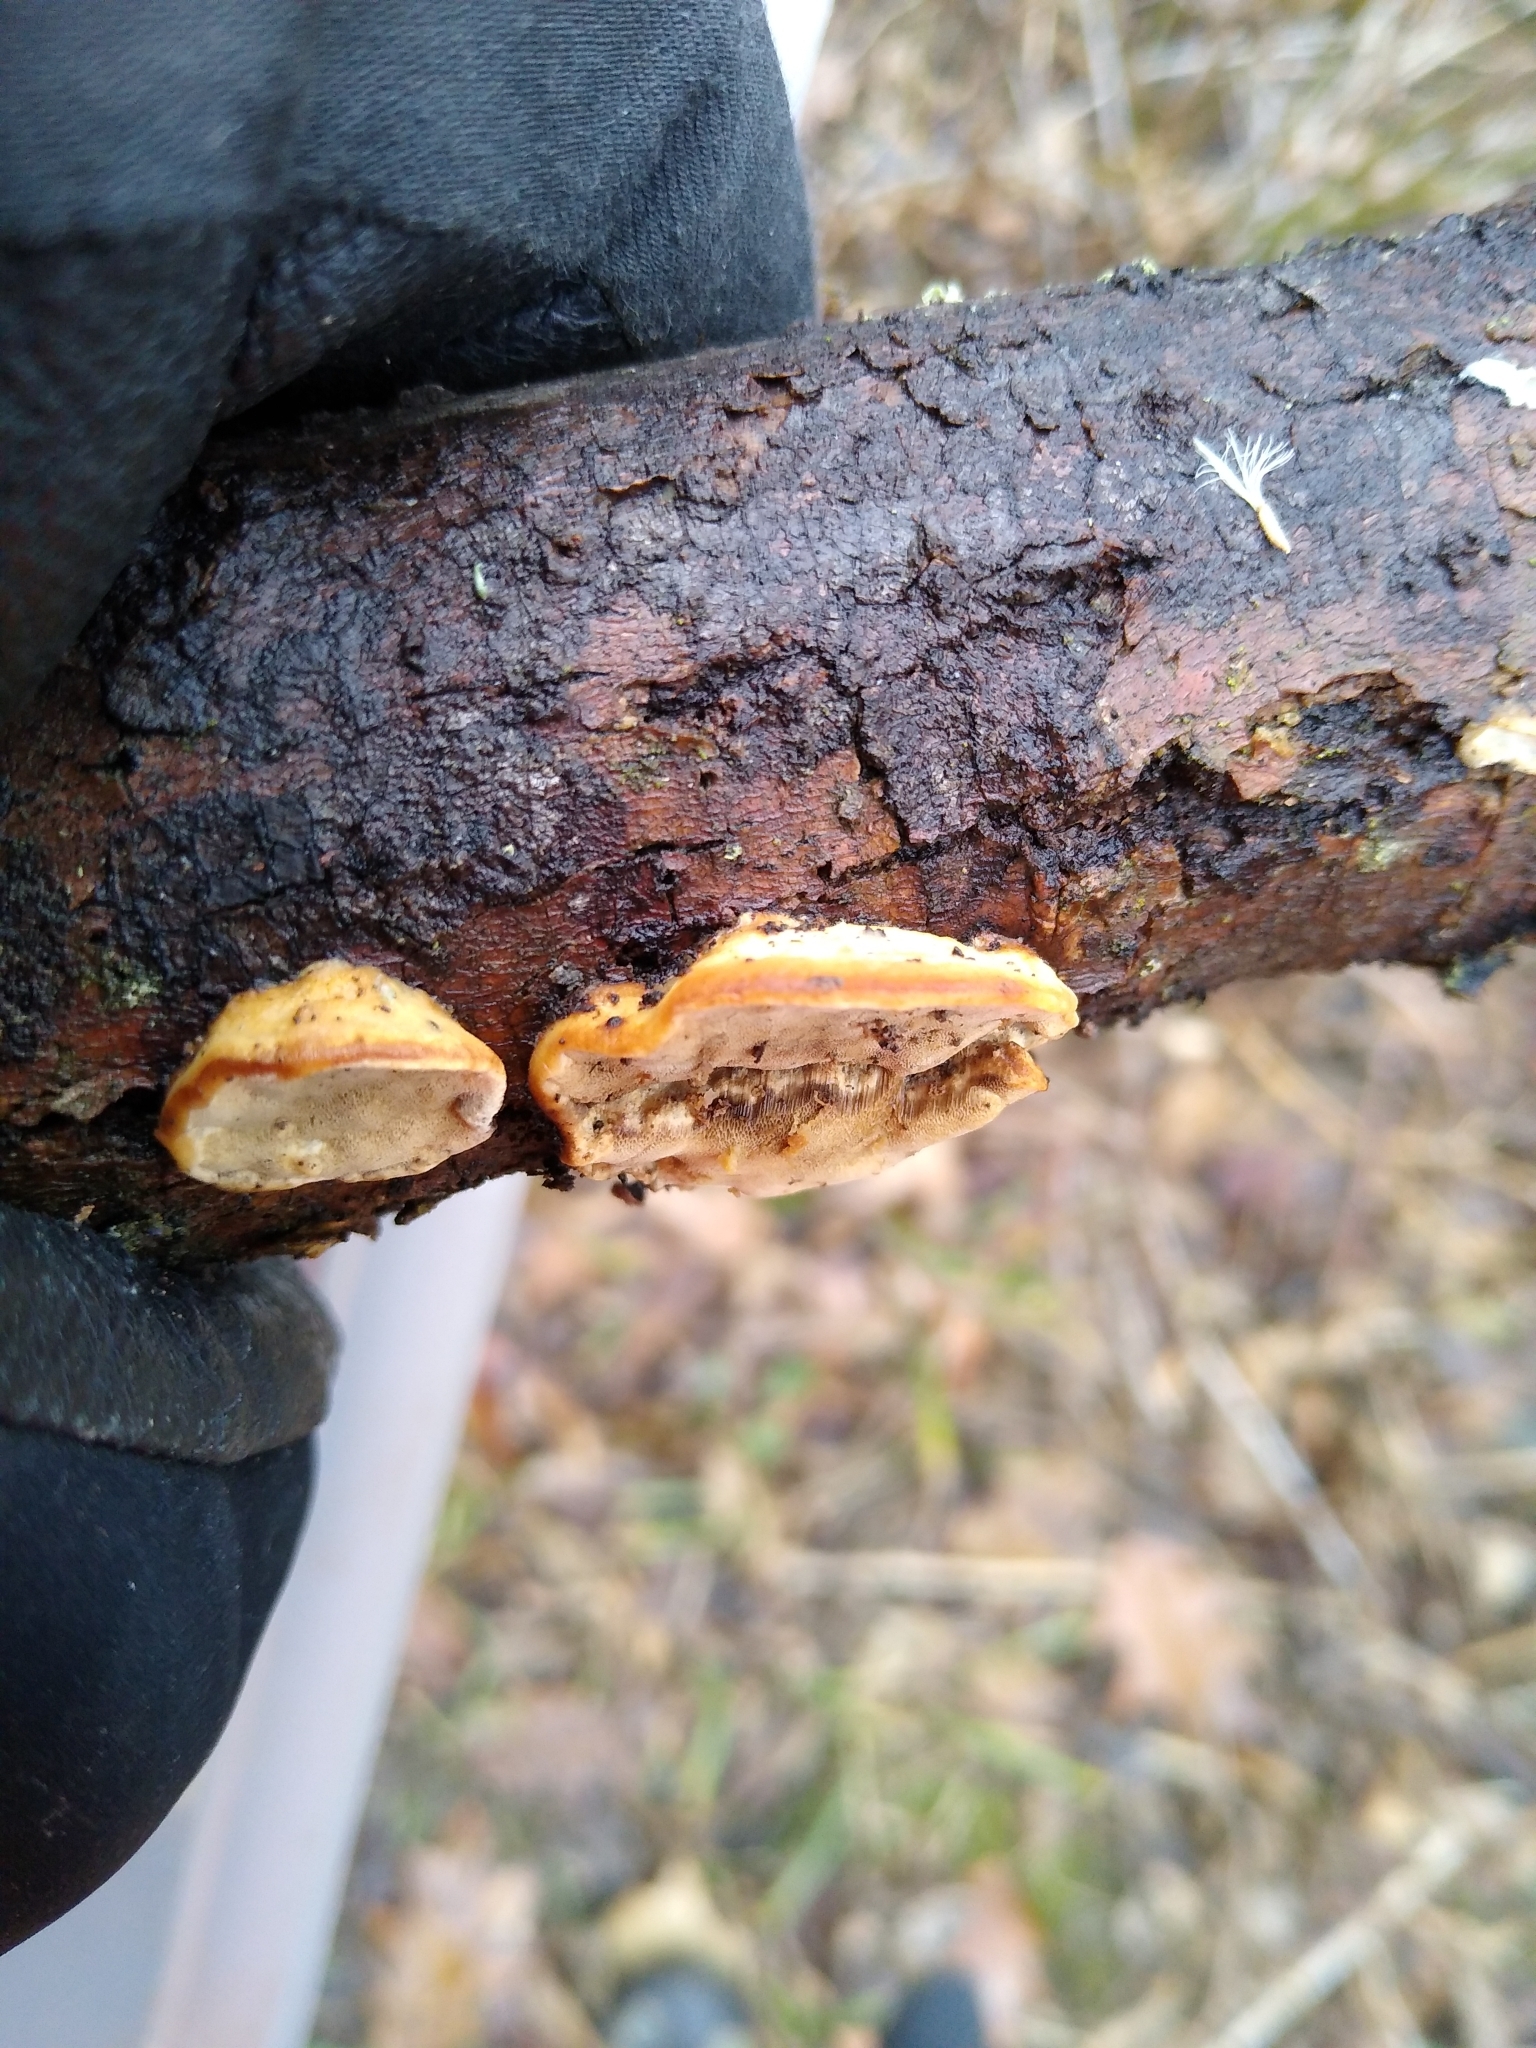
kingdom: Fungi
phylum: Basidiomycota
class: Agaricomycetes
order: Polyporales
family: Phanerochaetaceae
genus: Bjerkandera
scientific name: Bjerkandera adusta
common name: Smoky bracket
